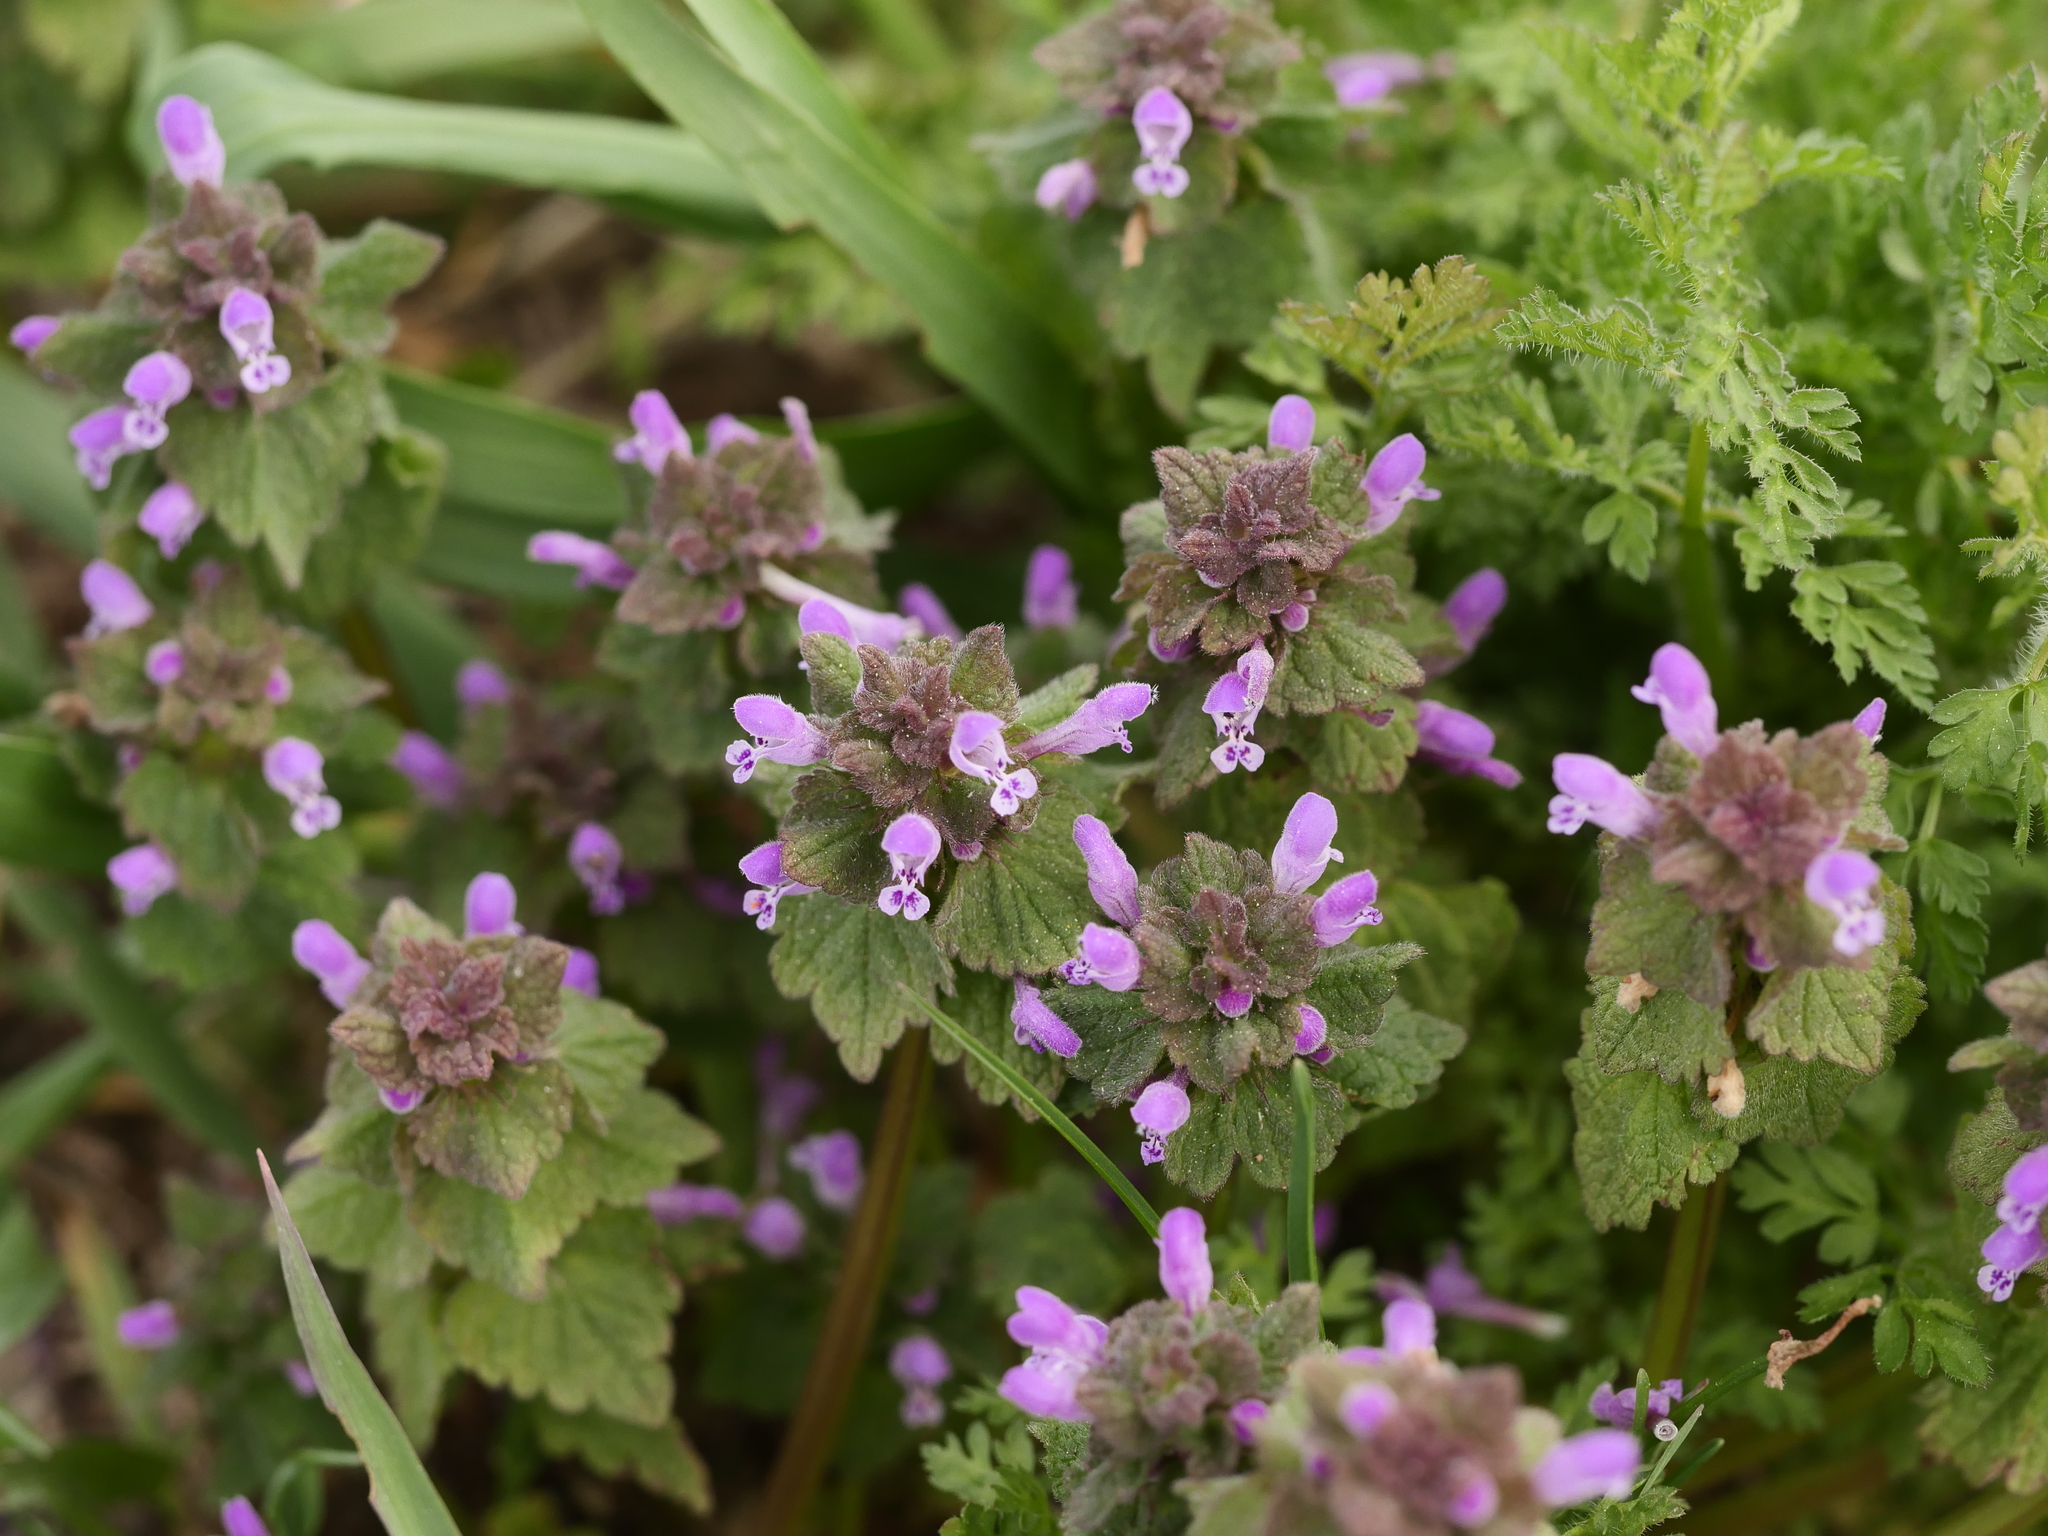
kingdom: Plantae
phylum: Tracheophyta
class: Magnoliopsida
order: Lamiales
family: Lamiaceae
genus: Lamium
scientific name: Lamium purpureum
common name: Red dead-nettle
